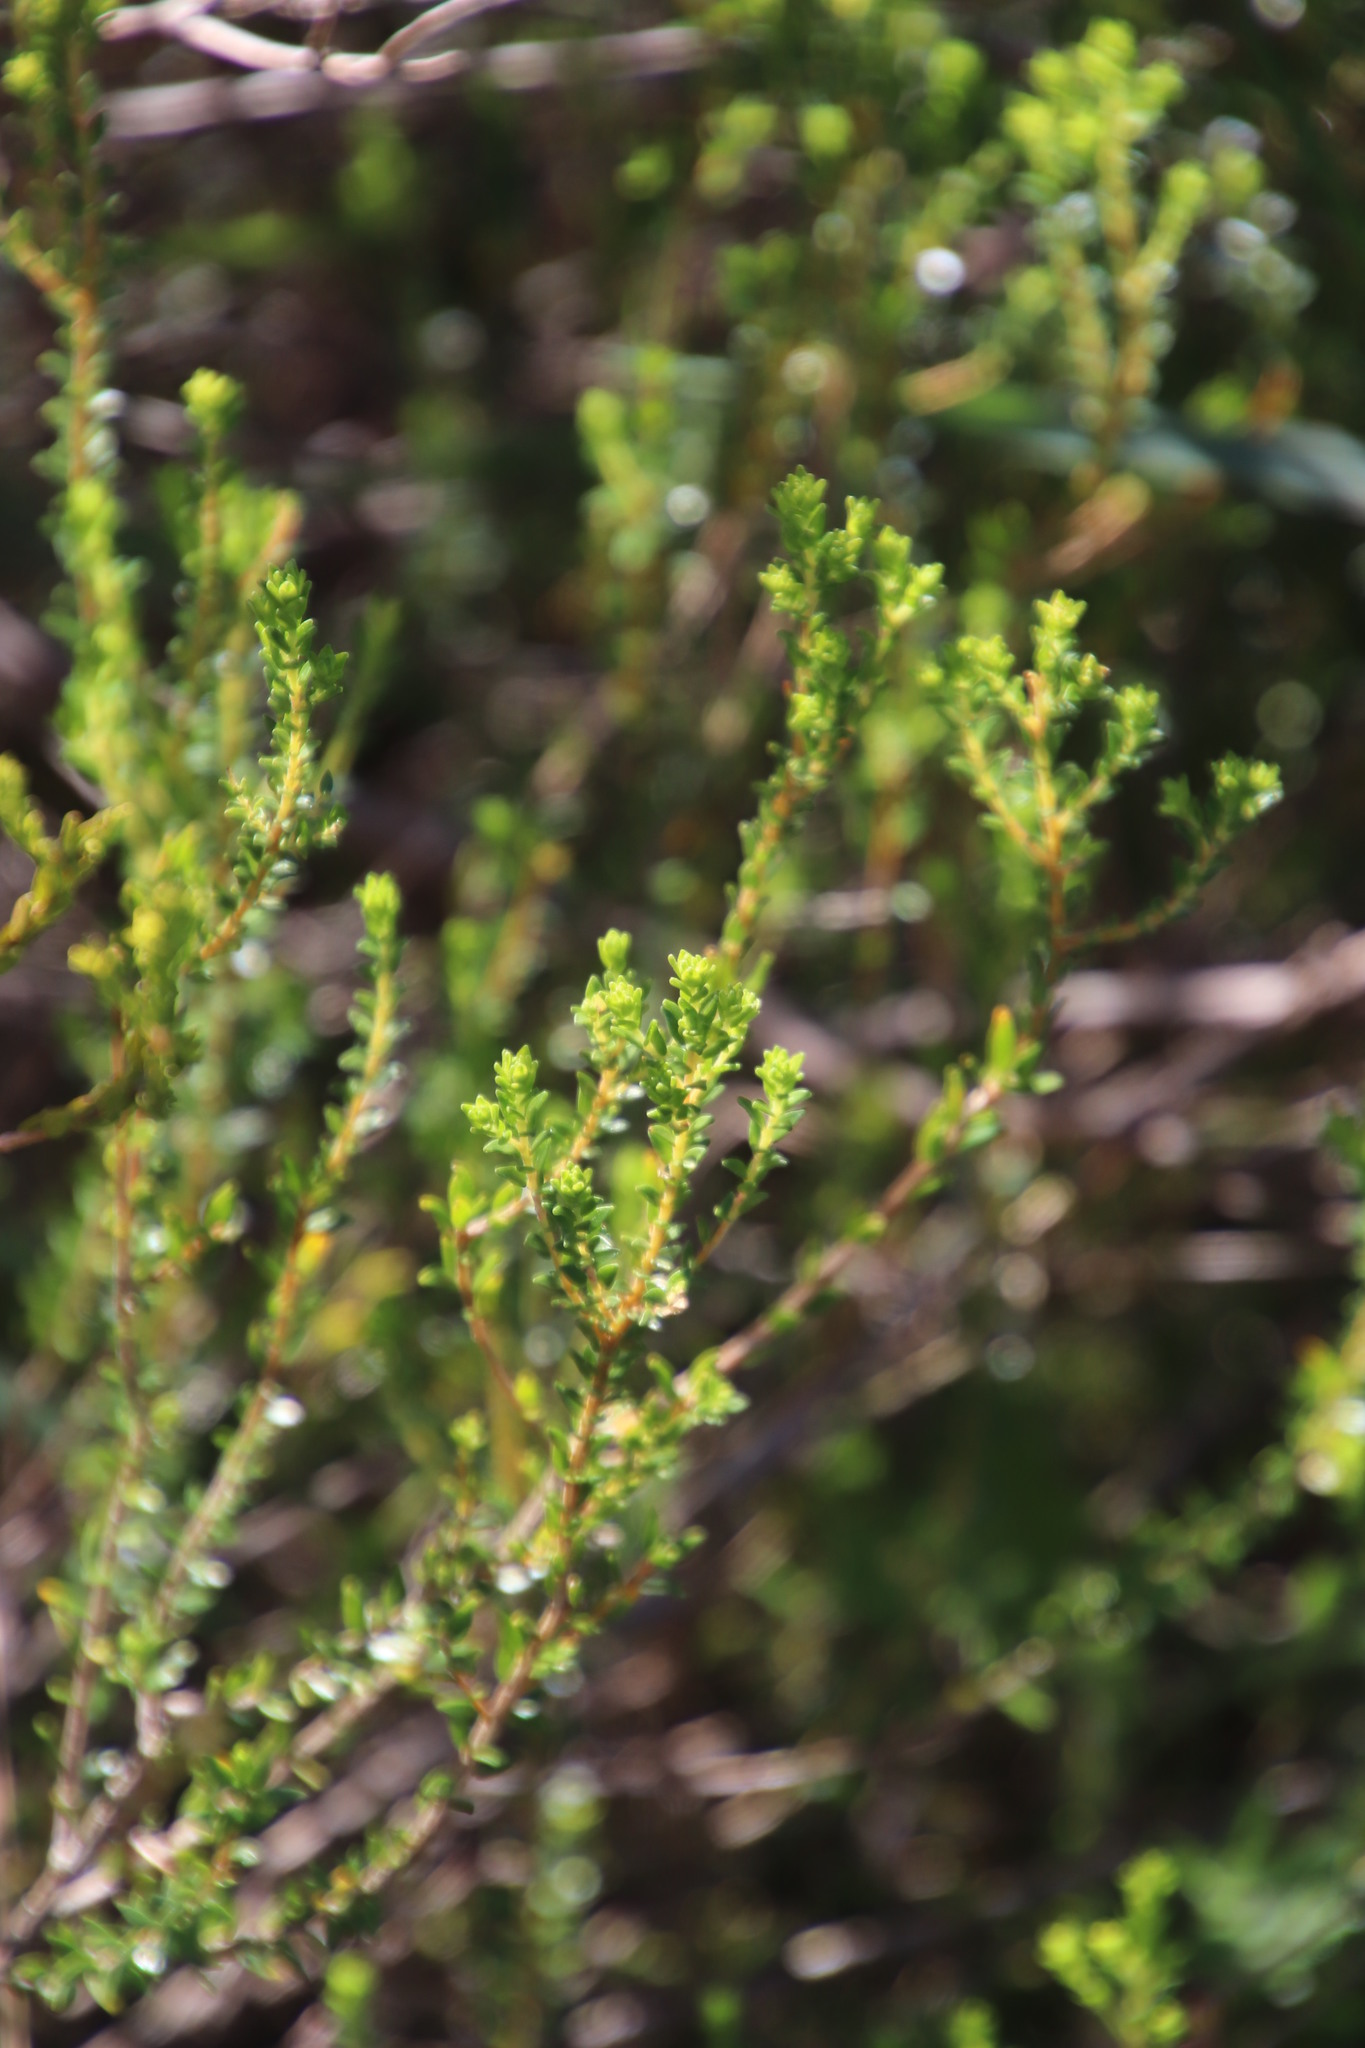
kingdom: Plantae
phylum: Tracheophyta
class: Magnoliopsida
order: Sapindales
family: Rutaceae
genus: Agathosma
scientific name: Agathosma glabrata
